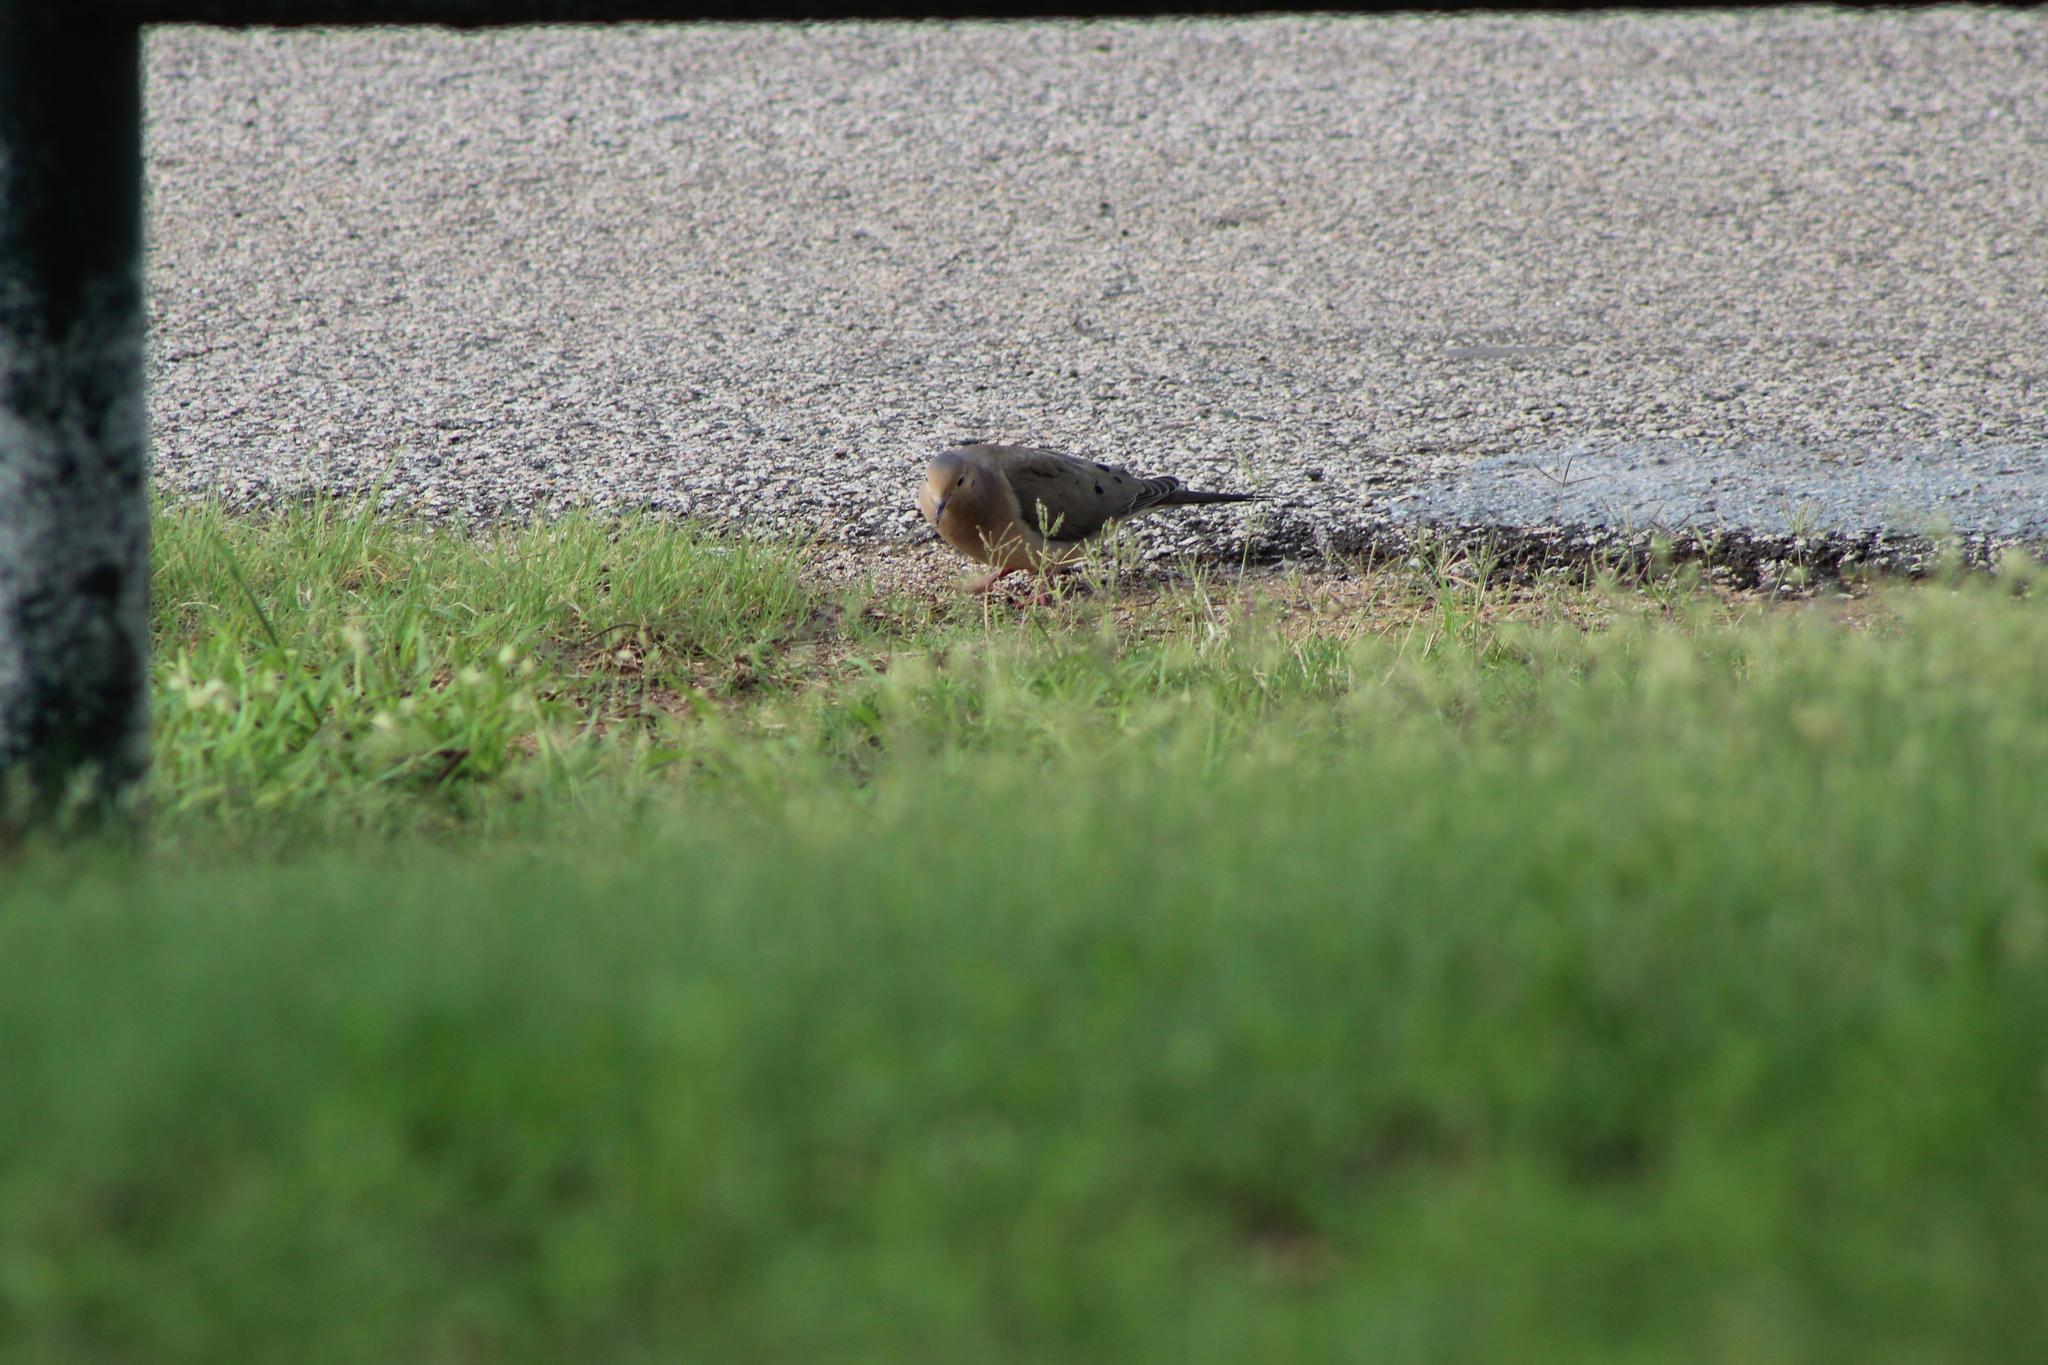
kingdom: Animalia
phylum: Chordata
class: Aves
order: Columbiformes
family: Columbidae
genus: Zenaida
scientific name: Zenaida macroura
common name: Mourning dove
